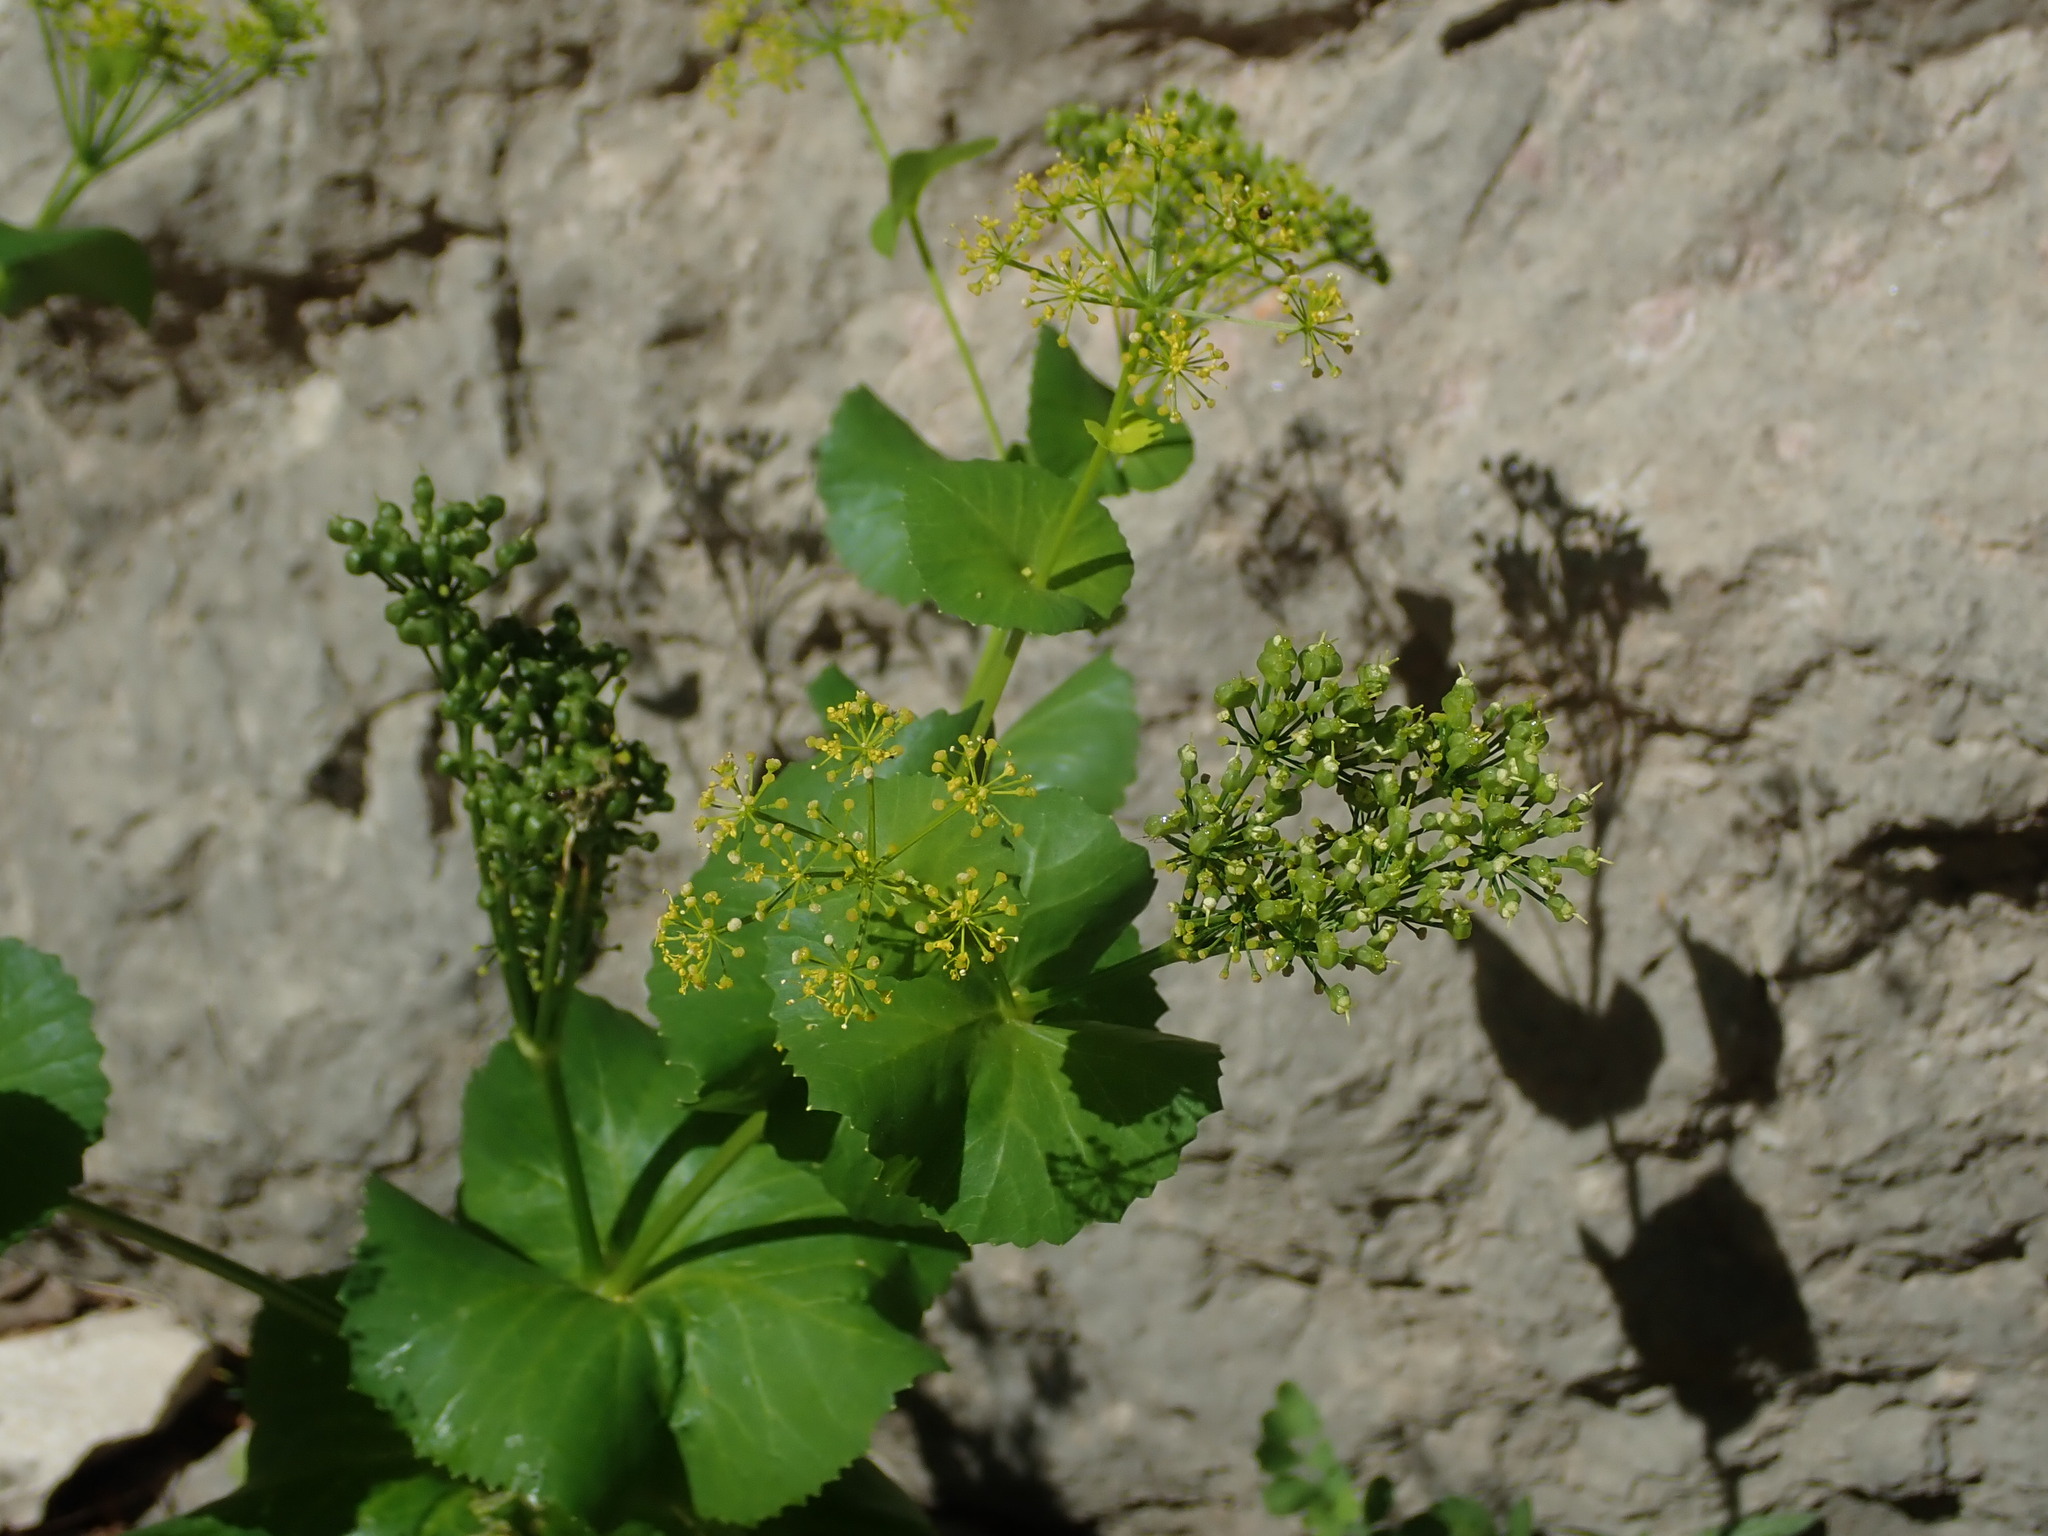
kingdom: Plantae
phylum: Tracheophyta
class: Magnoliopsida
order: Apiales
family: Apiaceae
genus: Smyrnium
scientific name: Smyrnium perfoliatum
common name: Perfoliate alexanders
